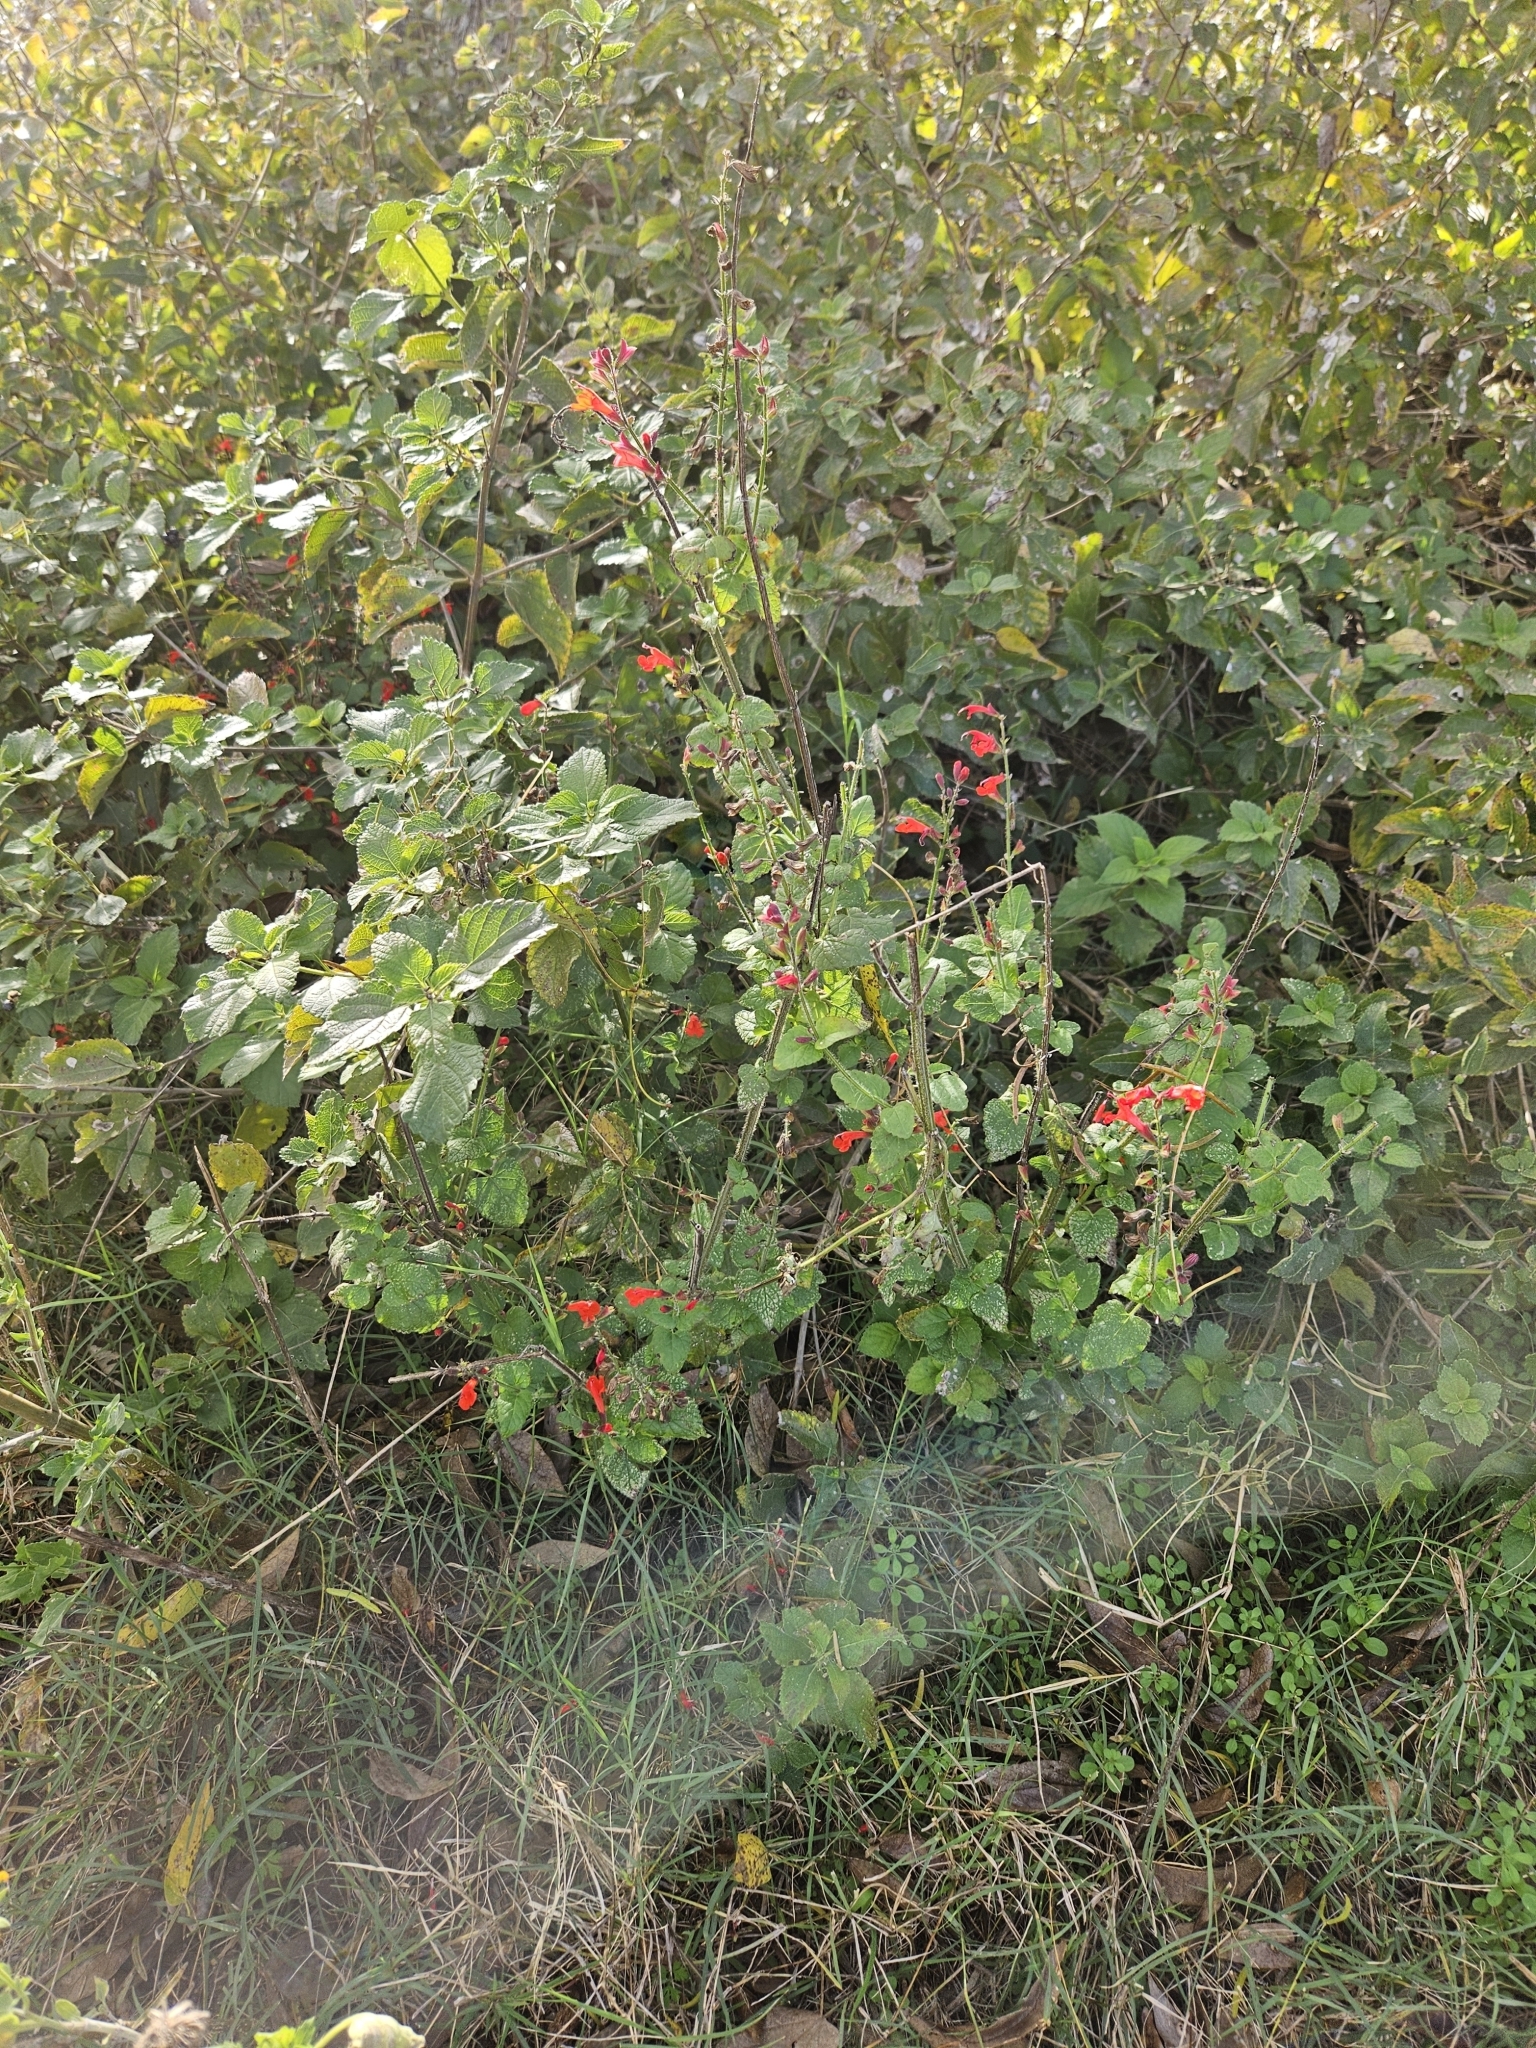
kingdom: Plantae
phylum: Tracheophyta
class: Magnoliopsida
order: Lamiales
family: Lamiaceae
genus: Salvia
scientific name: Salvia coccinea
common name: Blood sage
